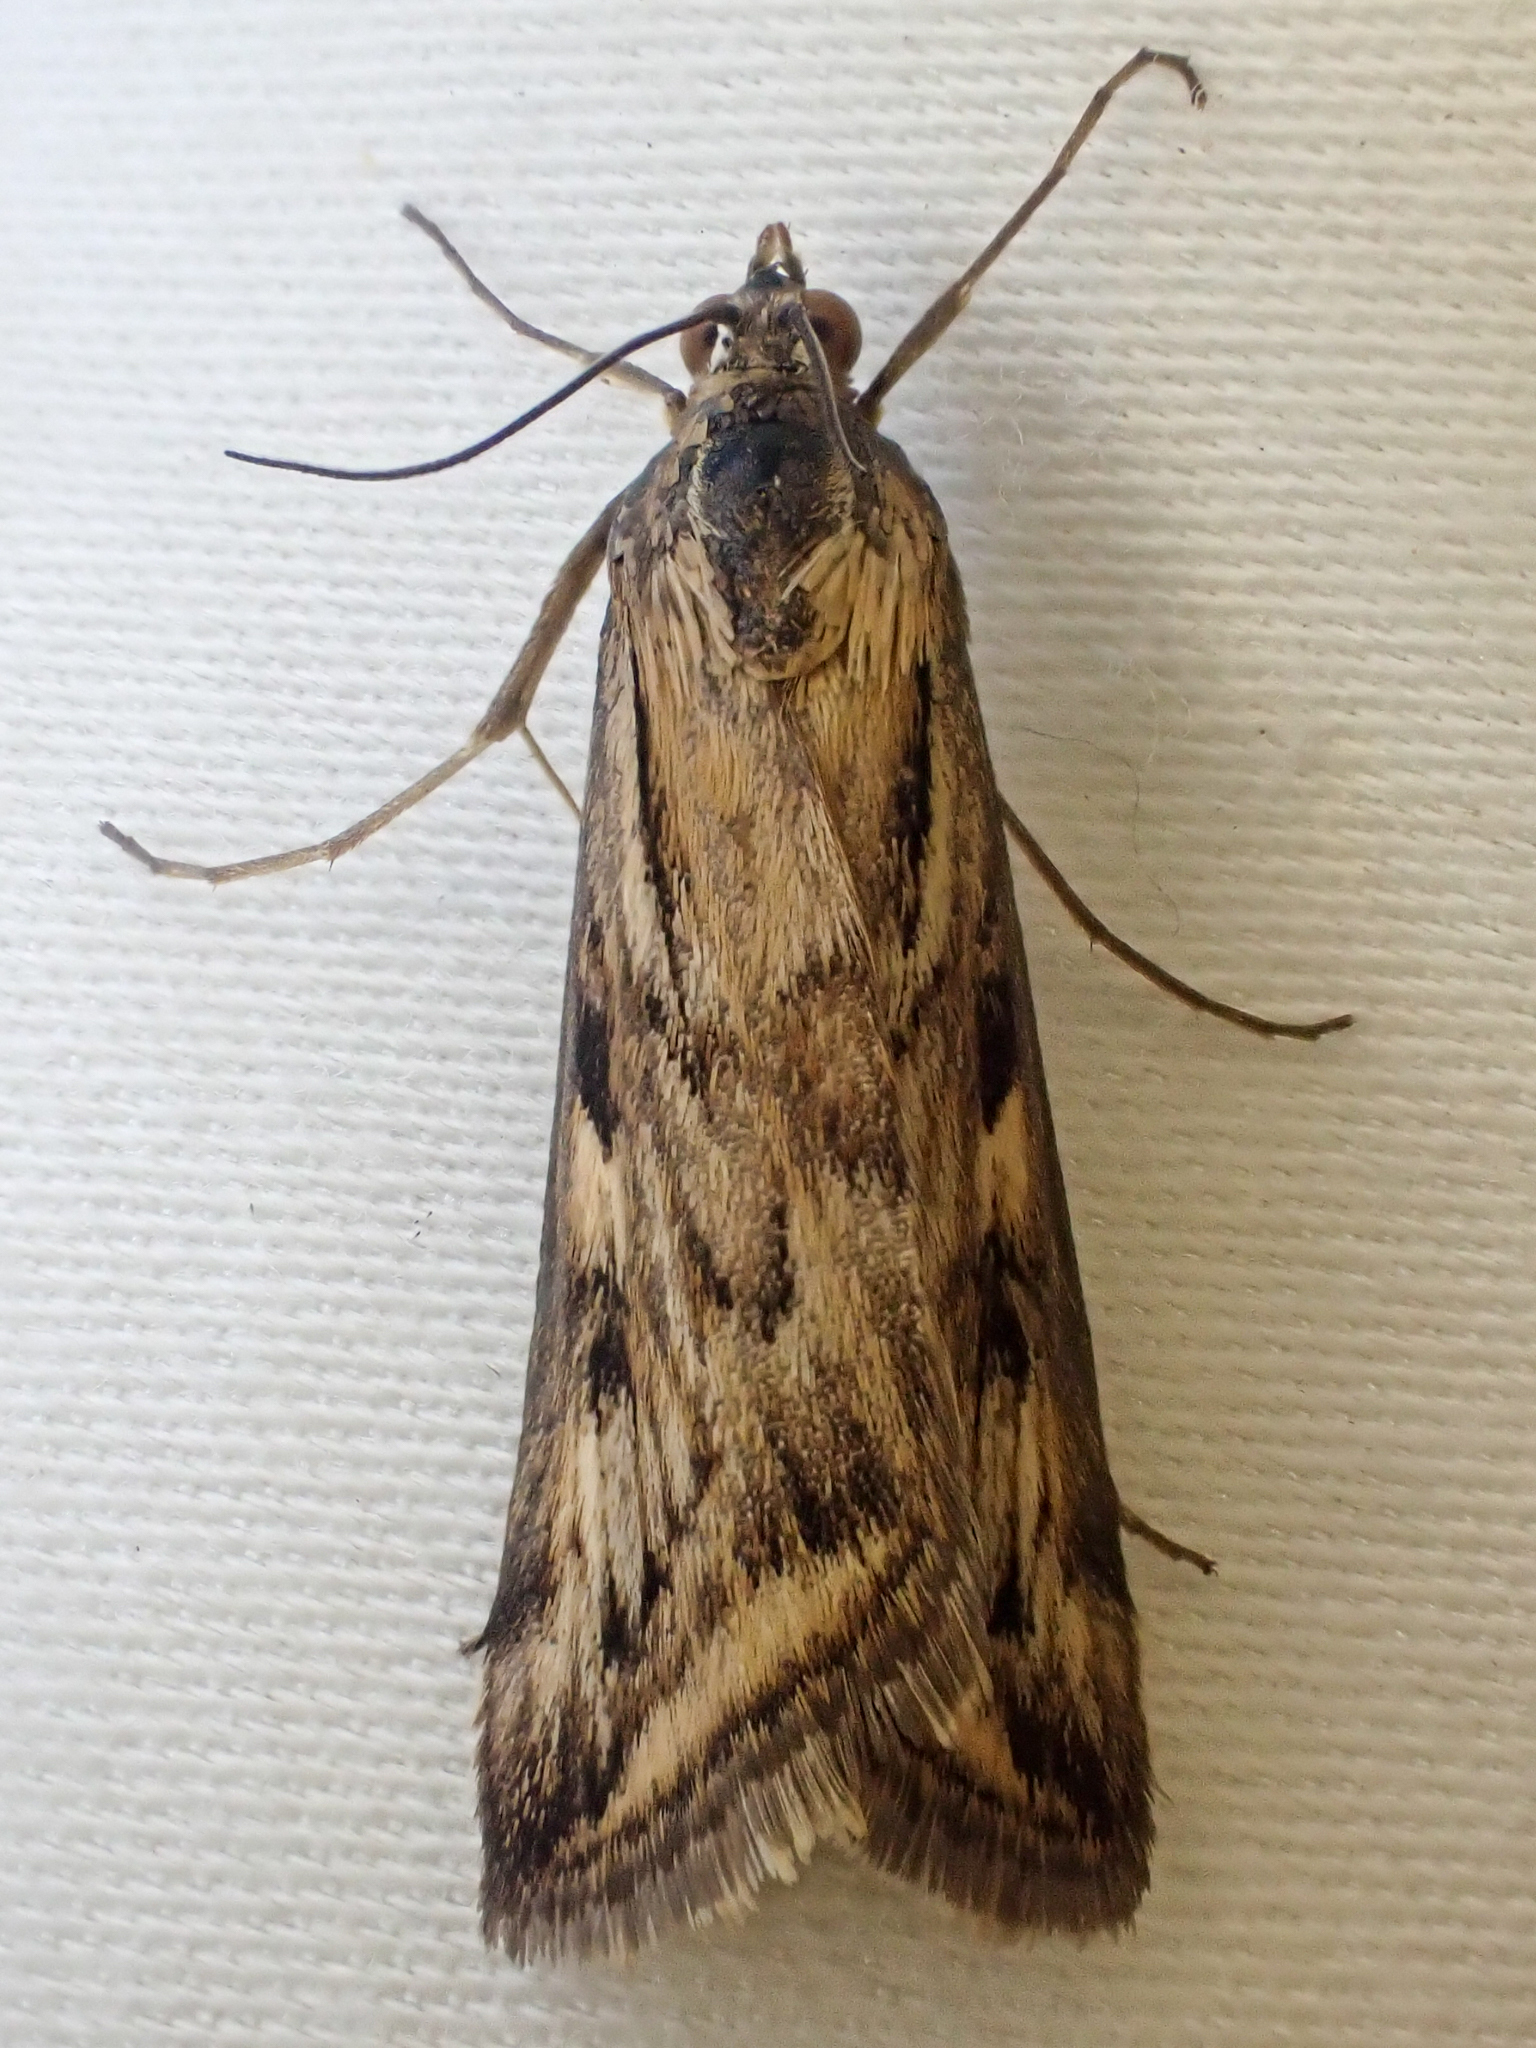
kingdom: Animalia
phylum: Arthropoda
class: Insecta
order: Lepidoptera
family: Crambidae
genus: Loxostege
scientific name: Loxostege cereralis
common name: Alfalfa webworm moth
